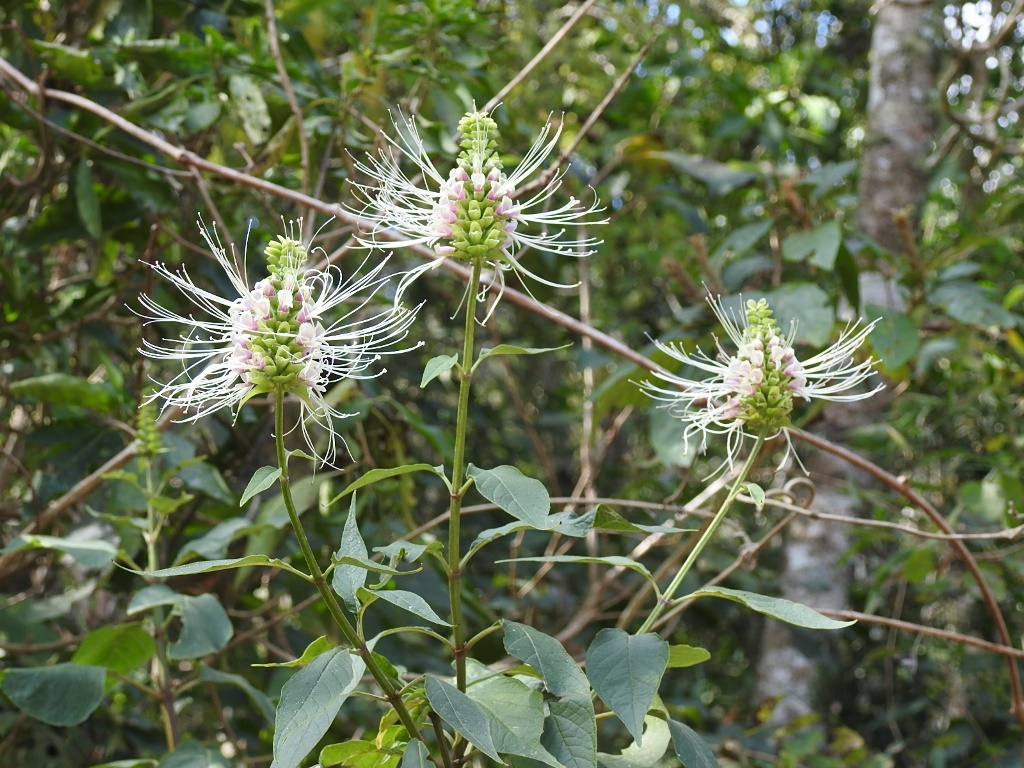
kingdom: Plantae
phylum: Tracheophyta
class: Magnoliopsida
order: Lamiales
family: Lamiaceae
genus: Catoferia
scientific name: Catoferia chiapensis
